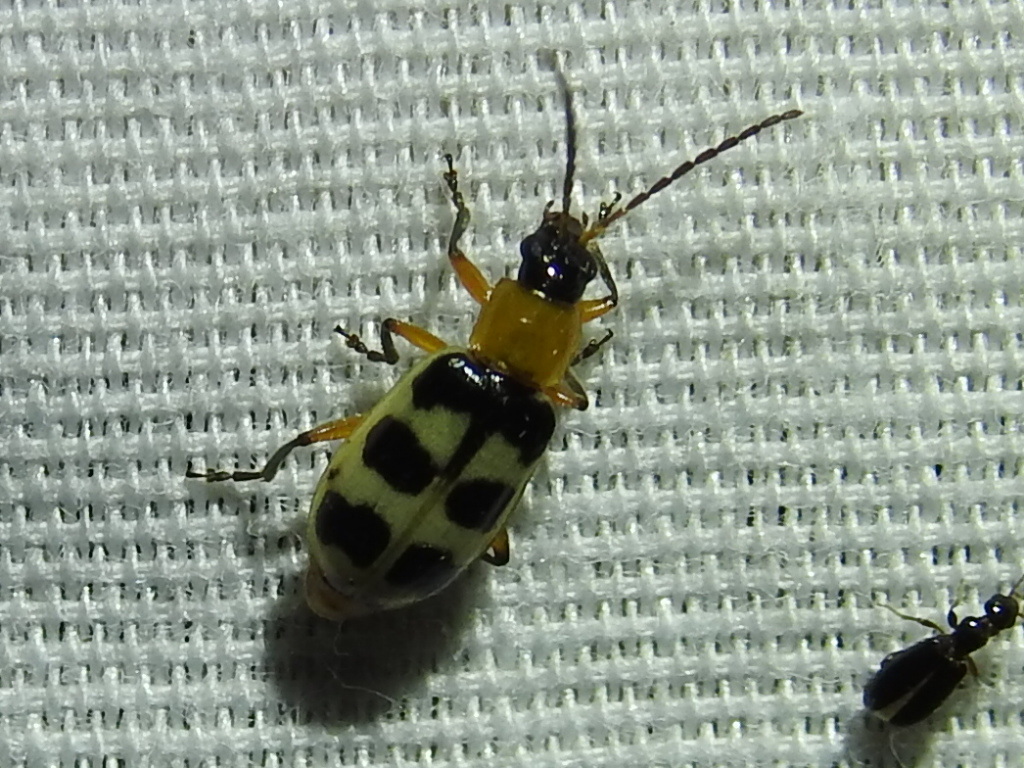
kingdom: Animalia
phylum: Arthropoda
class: Insecta
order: Coleoptera
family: Chrysomelidae
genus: Paranapiacaba
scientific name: Paranapiacaba tricincta
